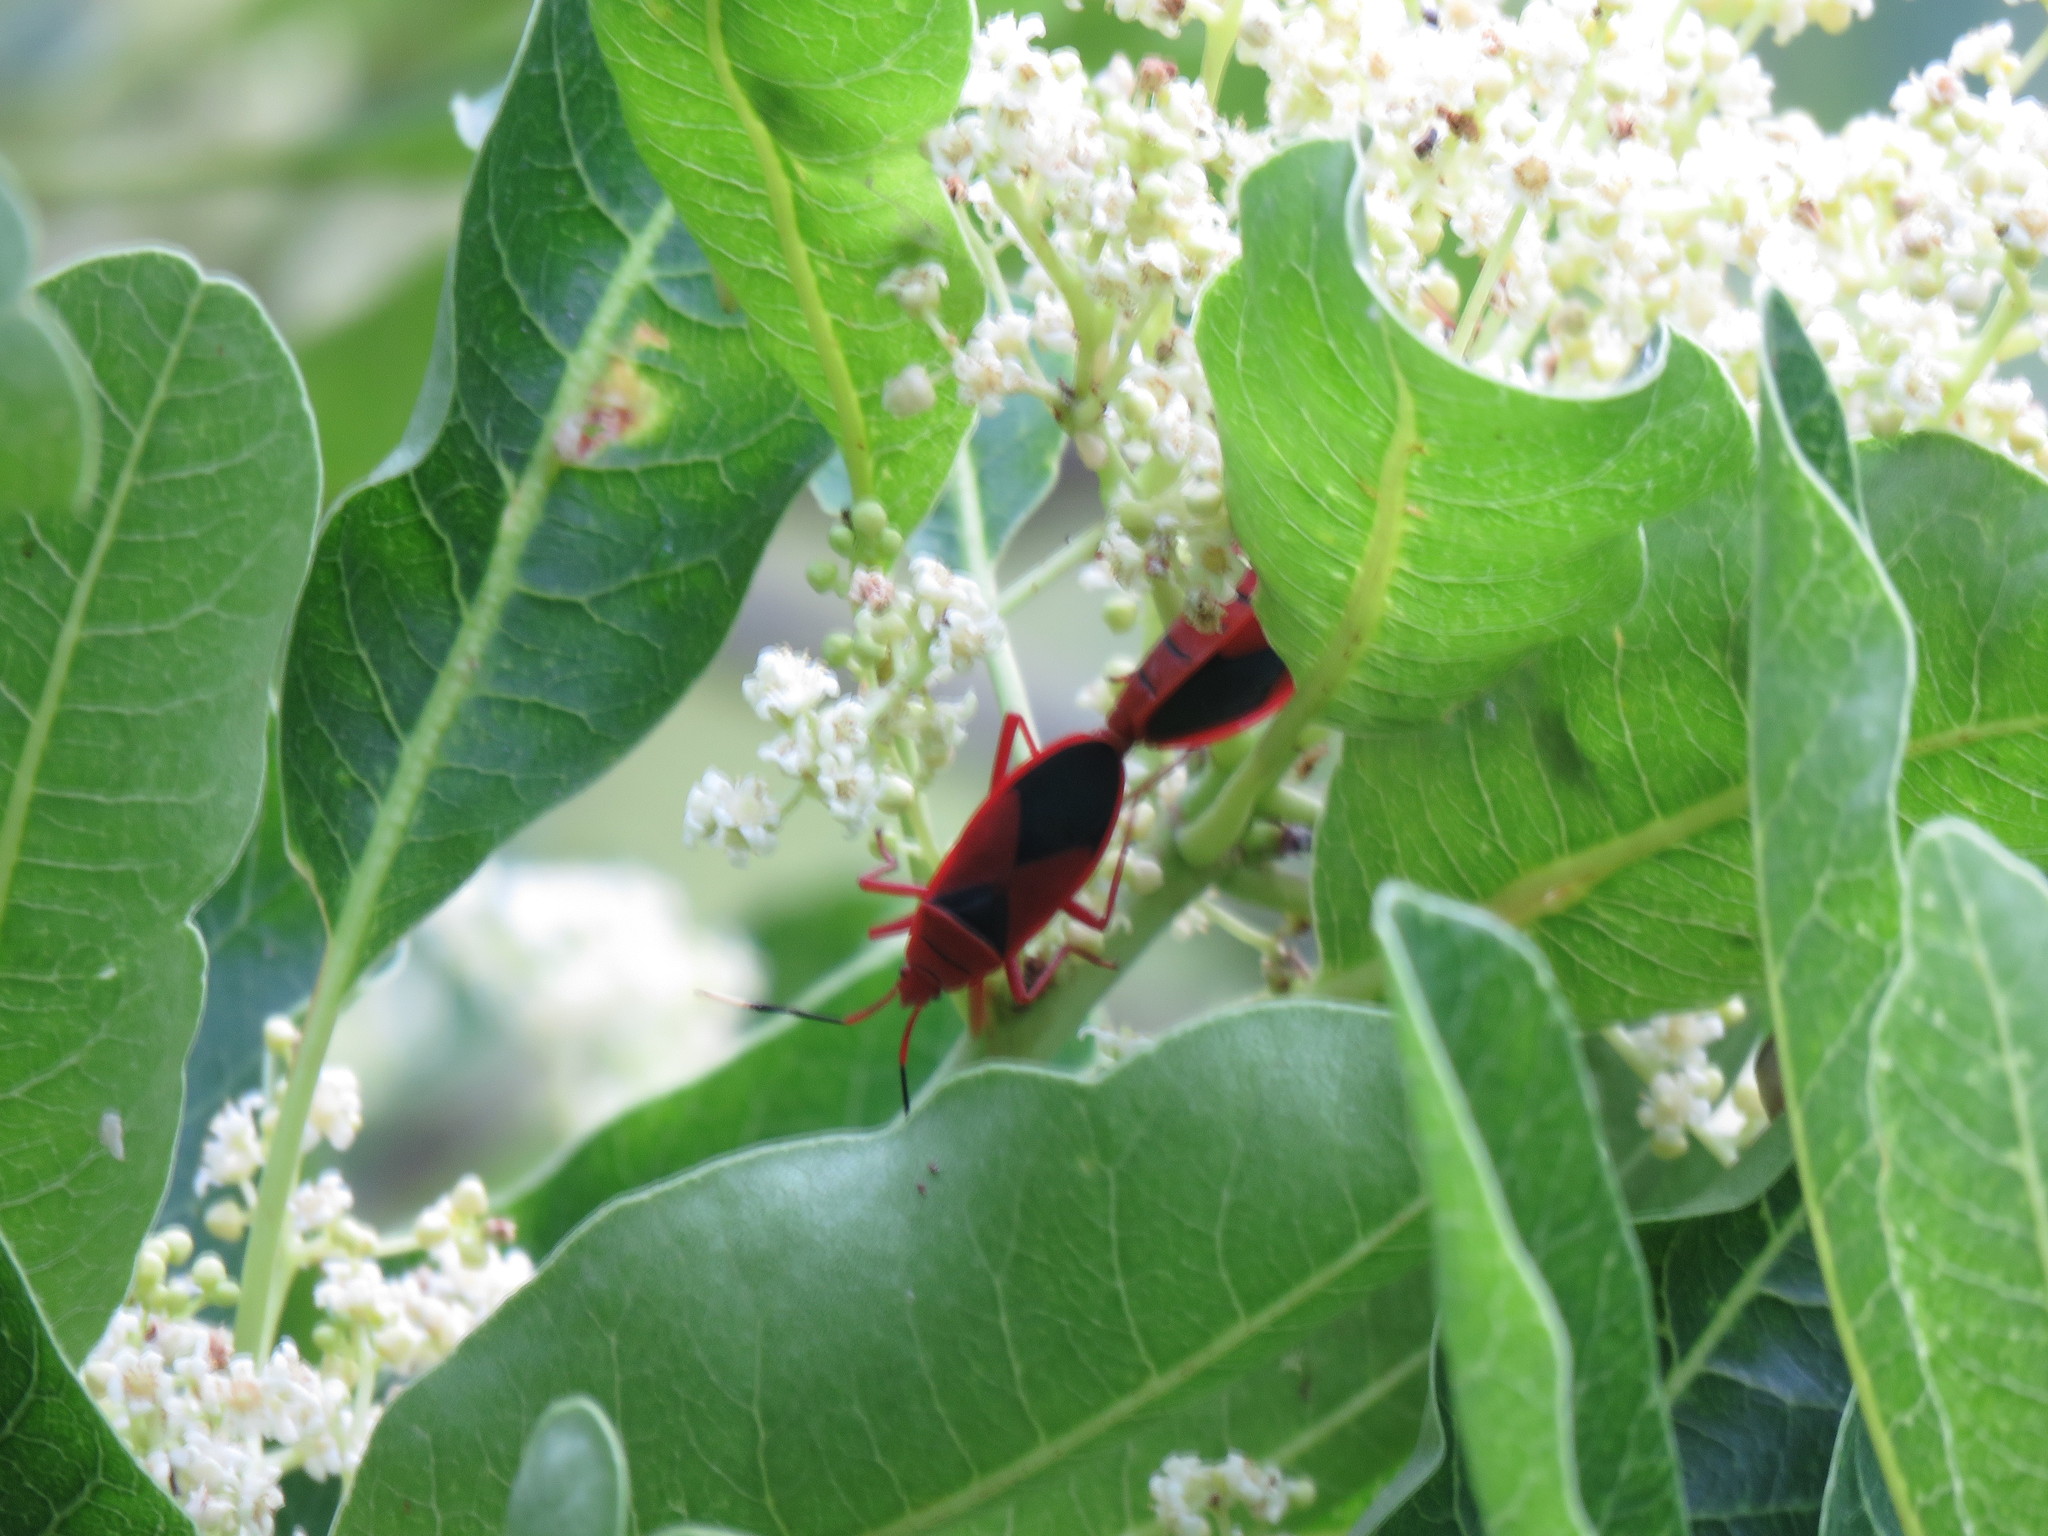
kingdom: Animalia
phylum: Arthropoda
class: Insecta
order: Hemiptera
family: Pyrrhocoridae
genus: Probergrothius
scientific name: Probergrothius
